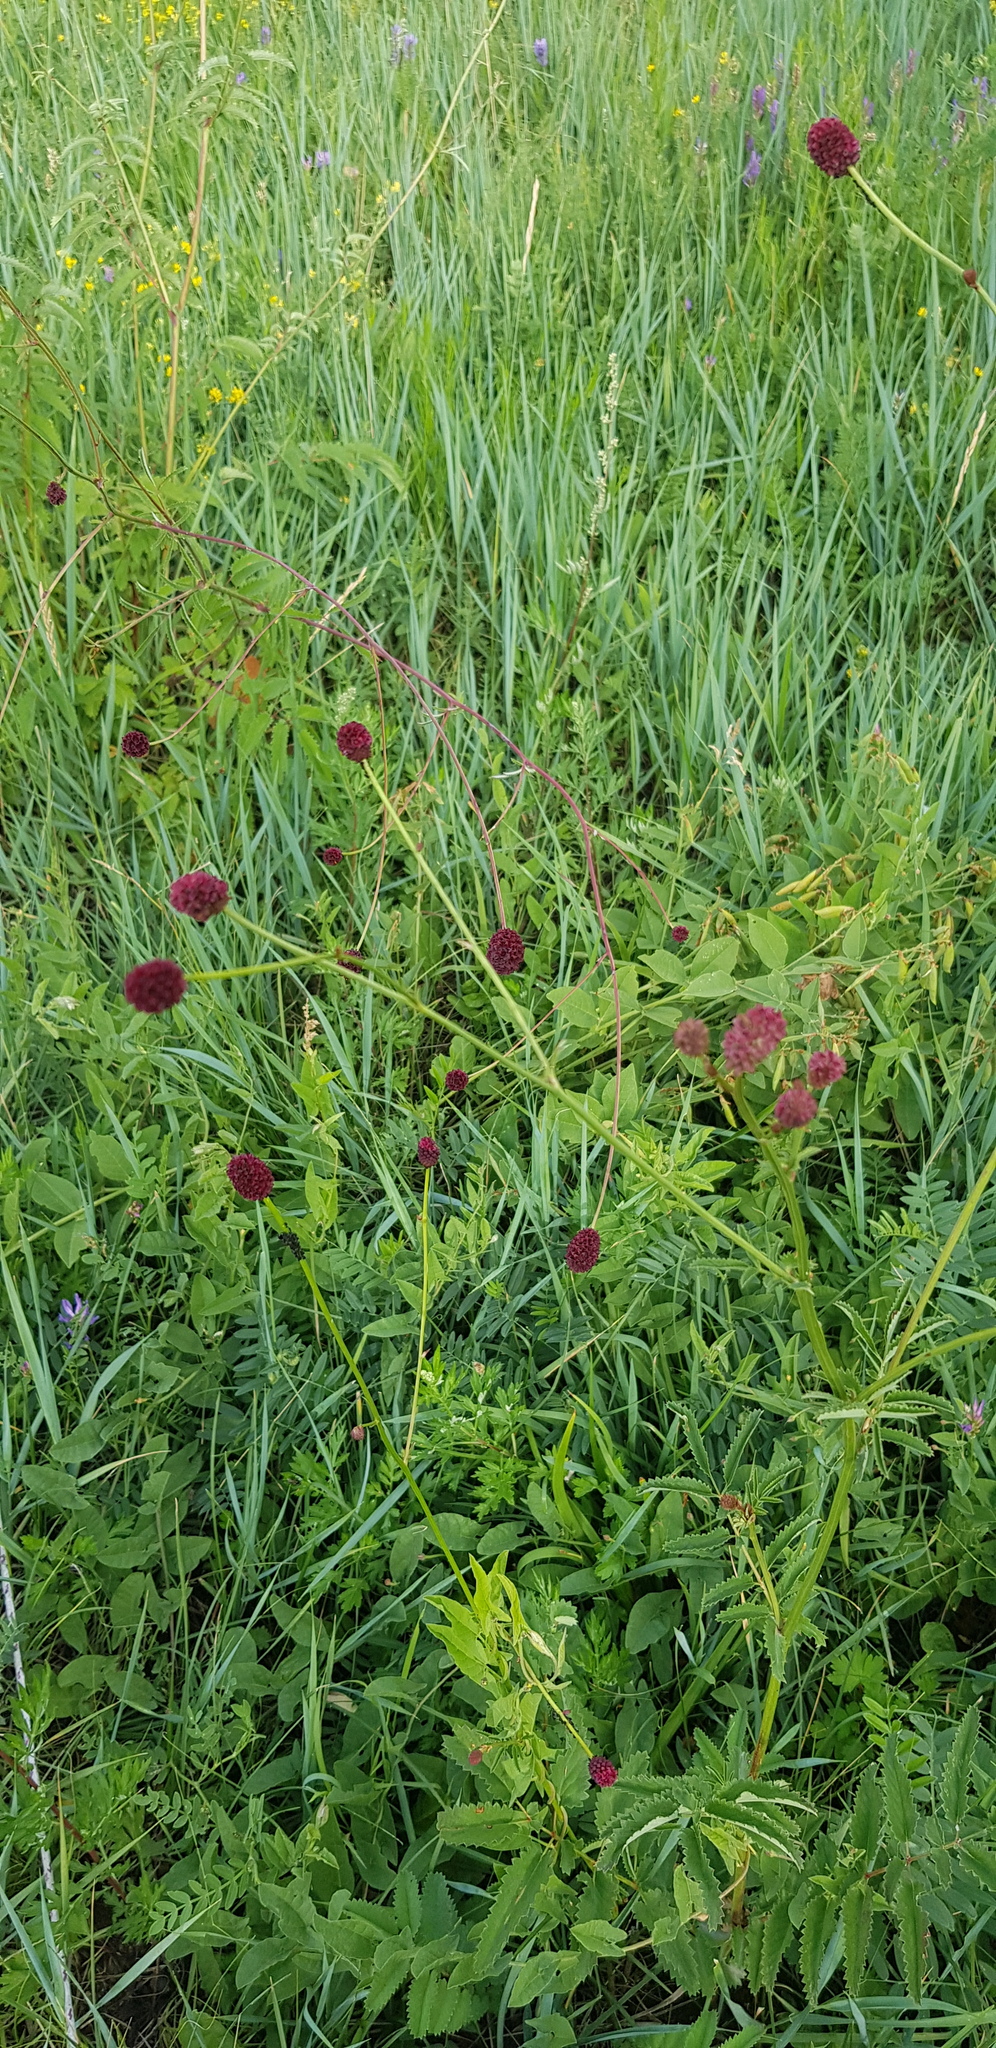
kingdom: Plantae
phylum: Tracheophyta
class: Magnoliopsida
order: Rosales
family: Rosaceae
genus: Sanguisorba
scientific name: Sanguisorba officinalis
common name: Great burnet
